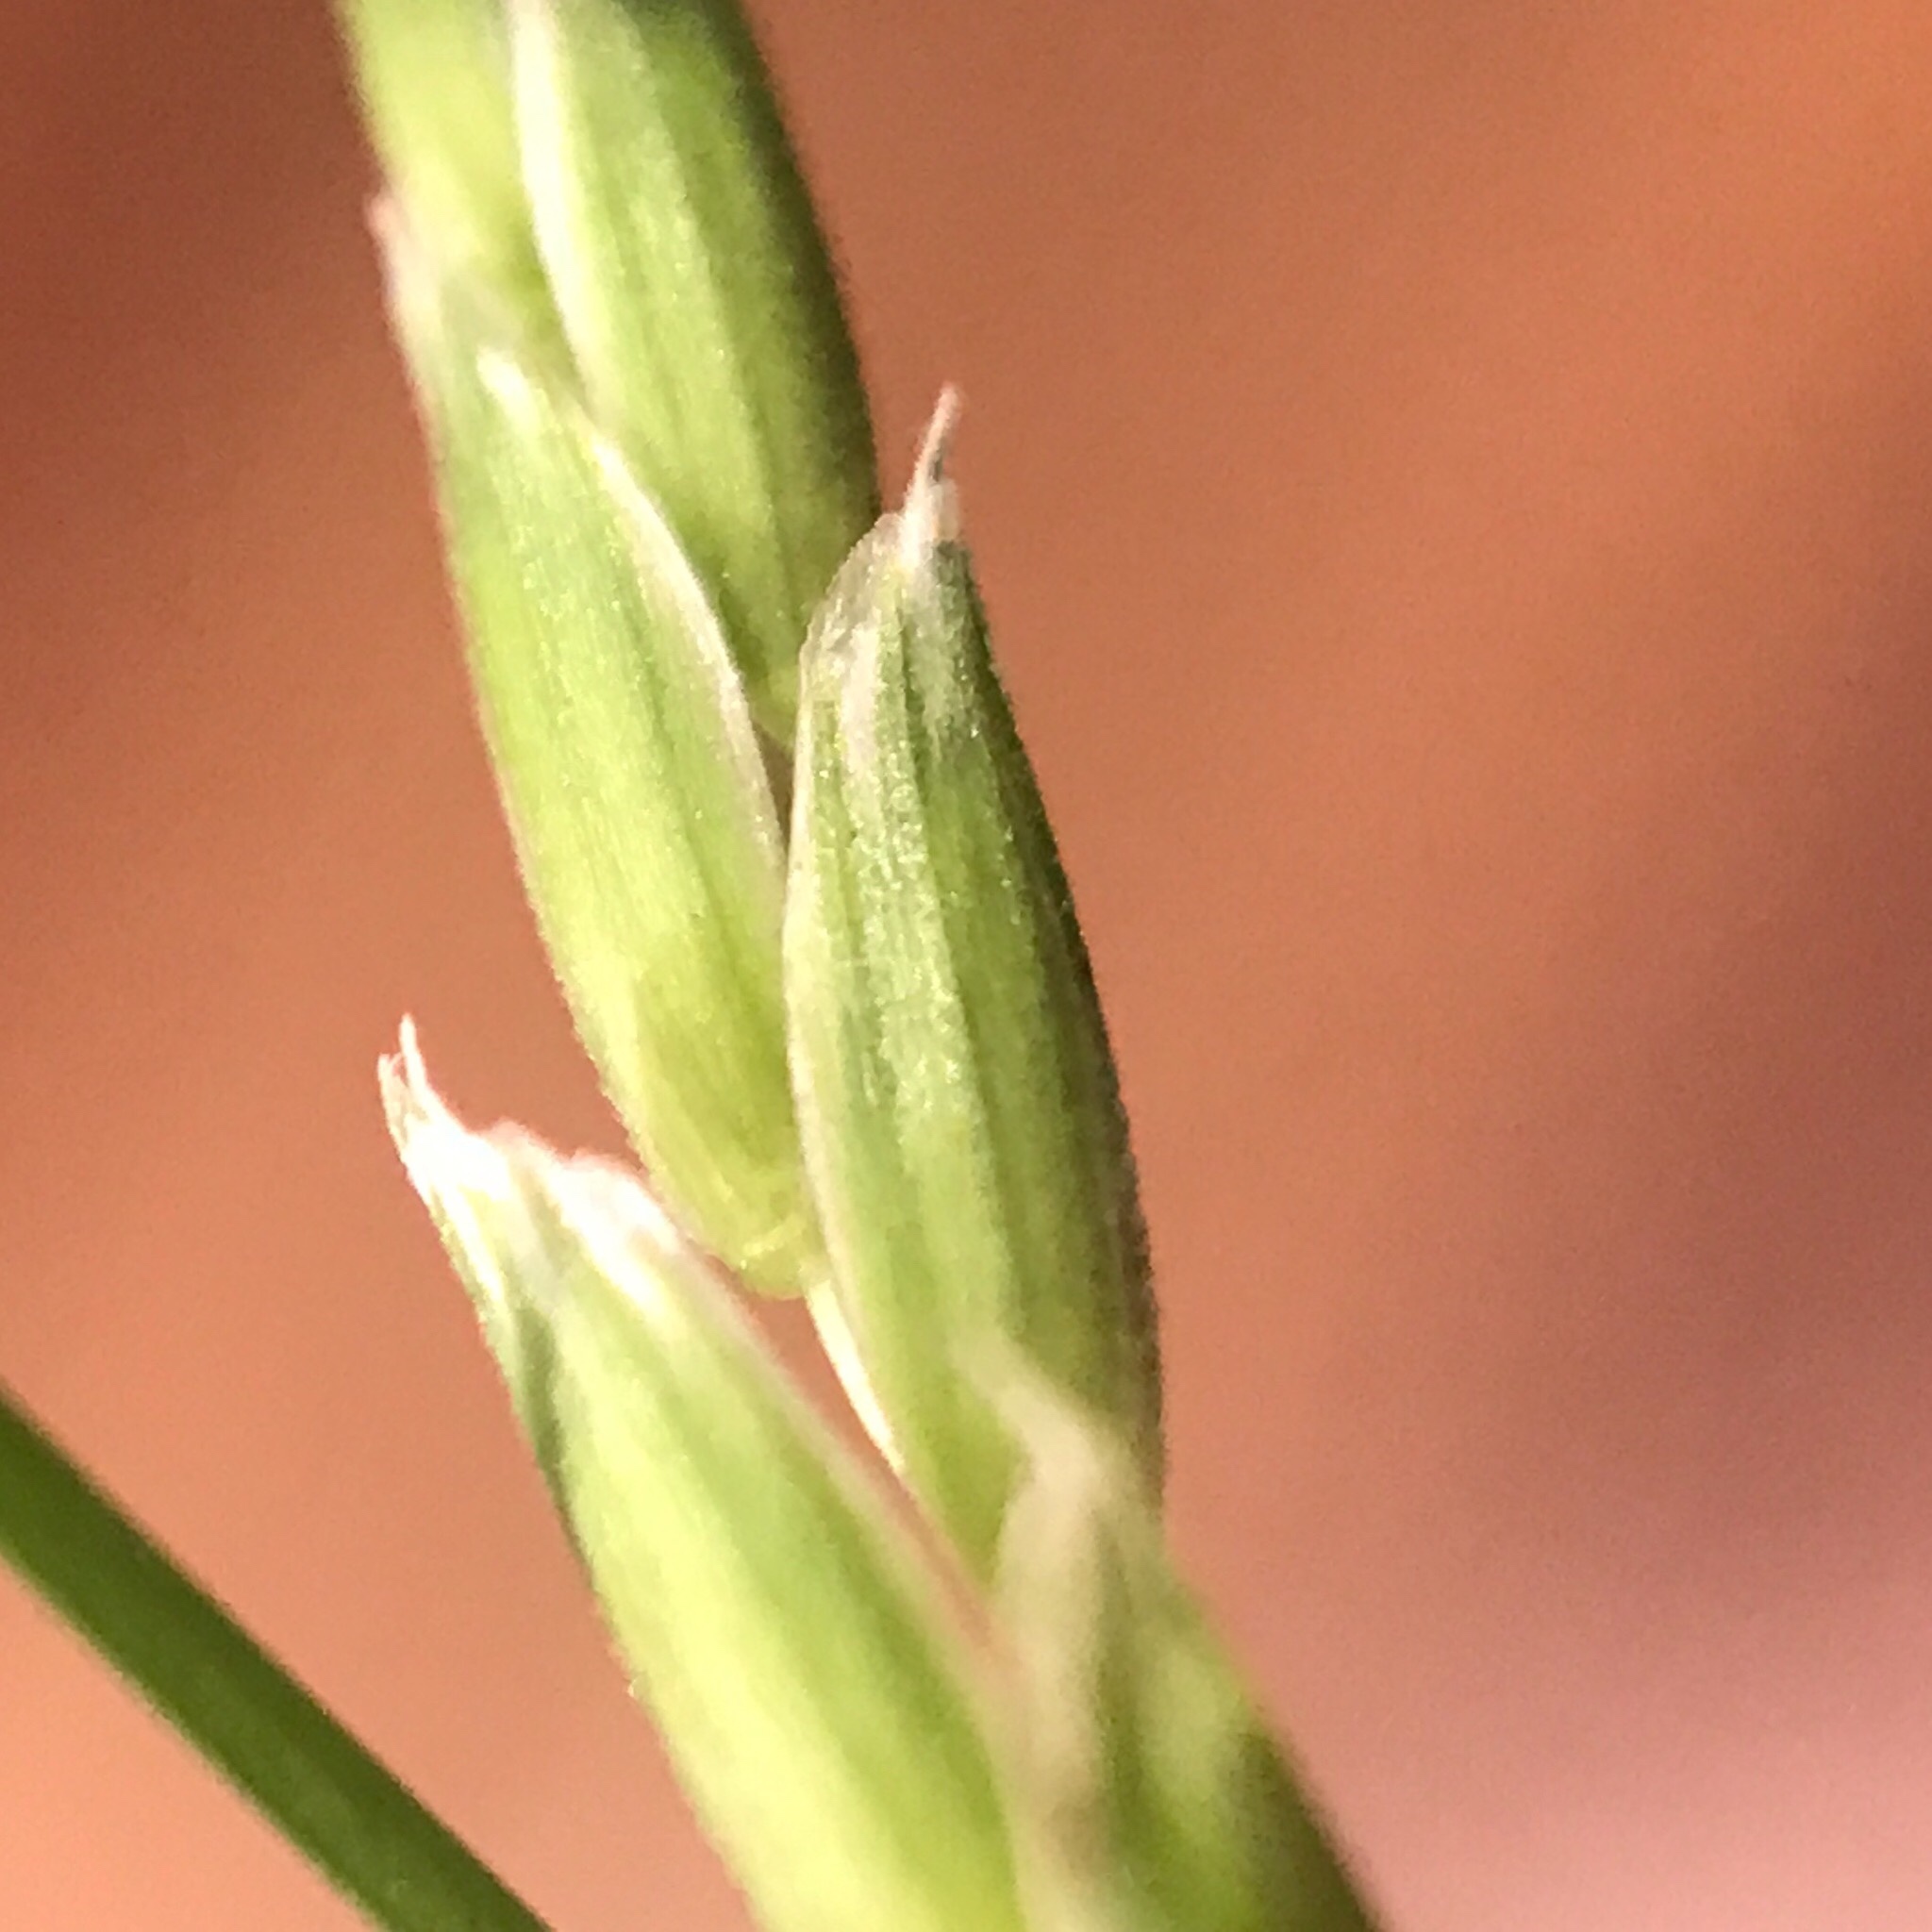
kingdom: Plantae
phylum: Tracheophyta
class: Liliopsida
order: Poales
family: Poaceae
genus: Glyceria
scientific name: Glyceria septentrionalis
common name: Eastern mannagrass
